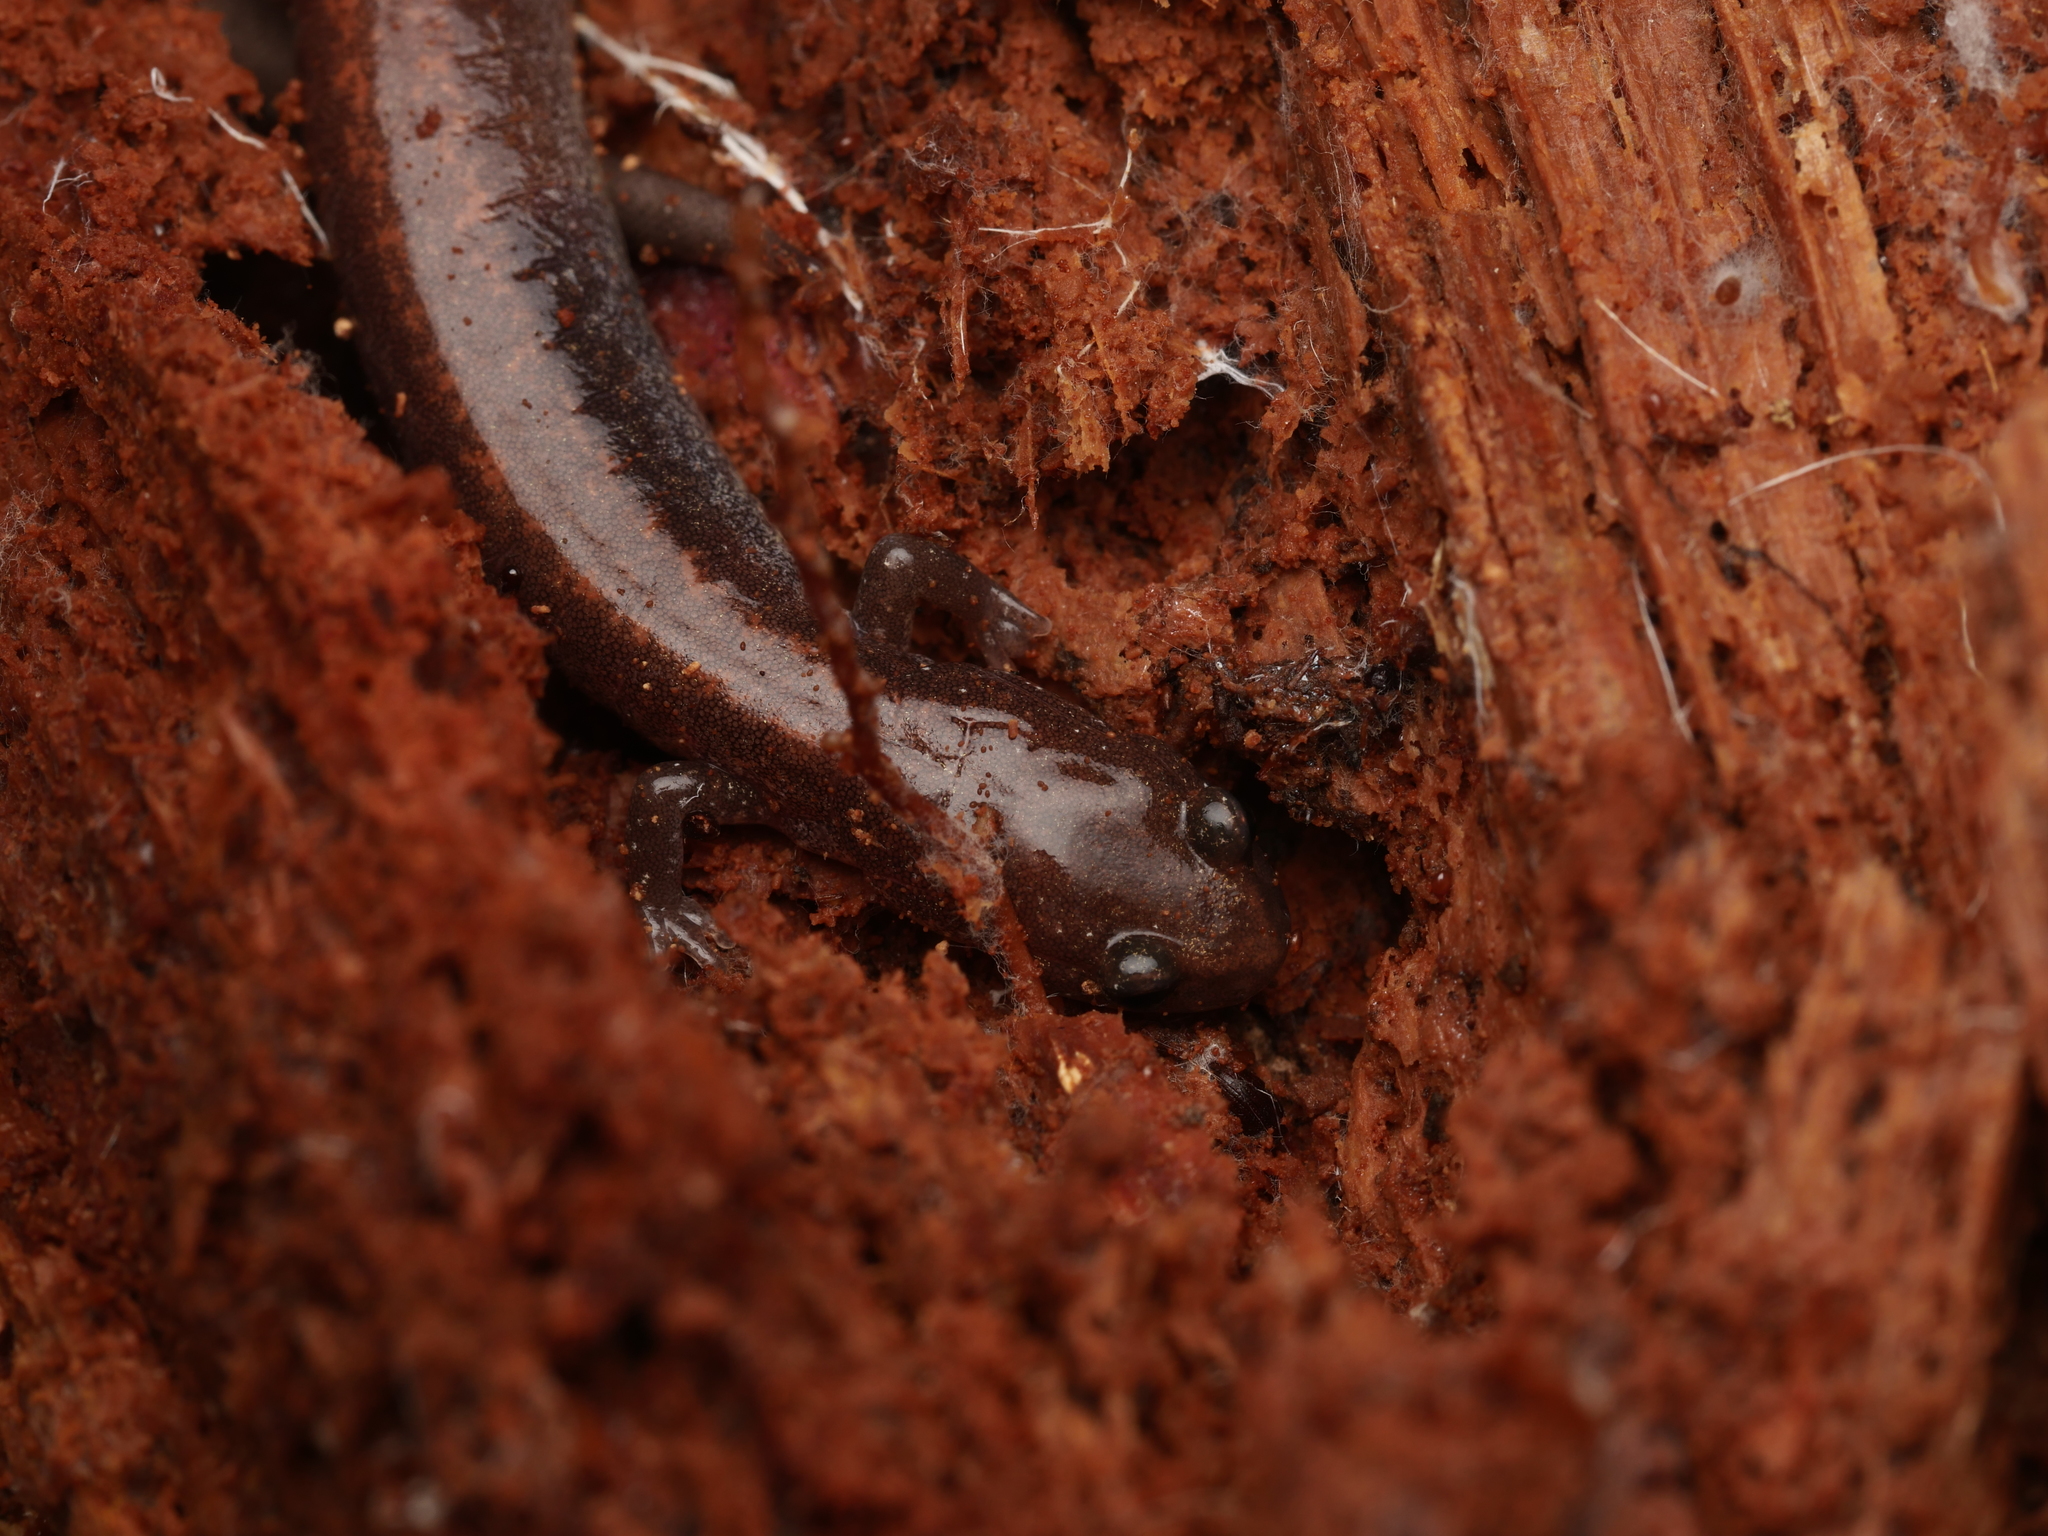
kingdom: Animalia
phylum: Chordata
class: Amphibia
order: Caudata
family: Plethodontidae
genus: Plethodon
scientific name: Plethodon cinereus
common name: Redback salamander
